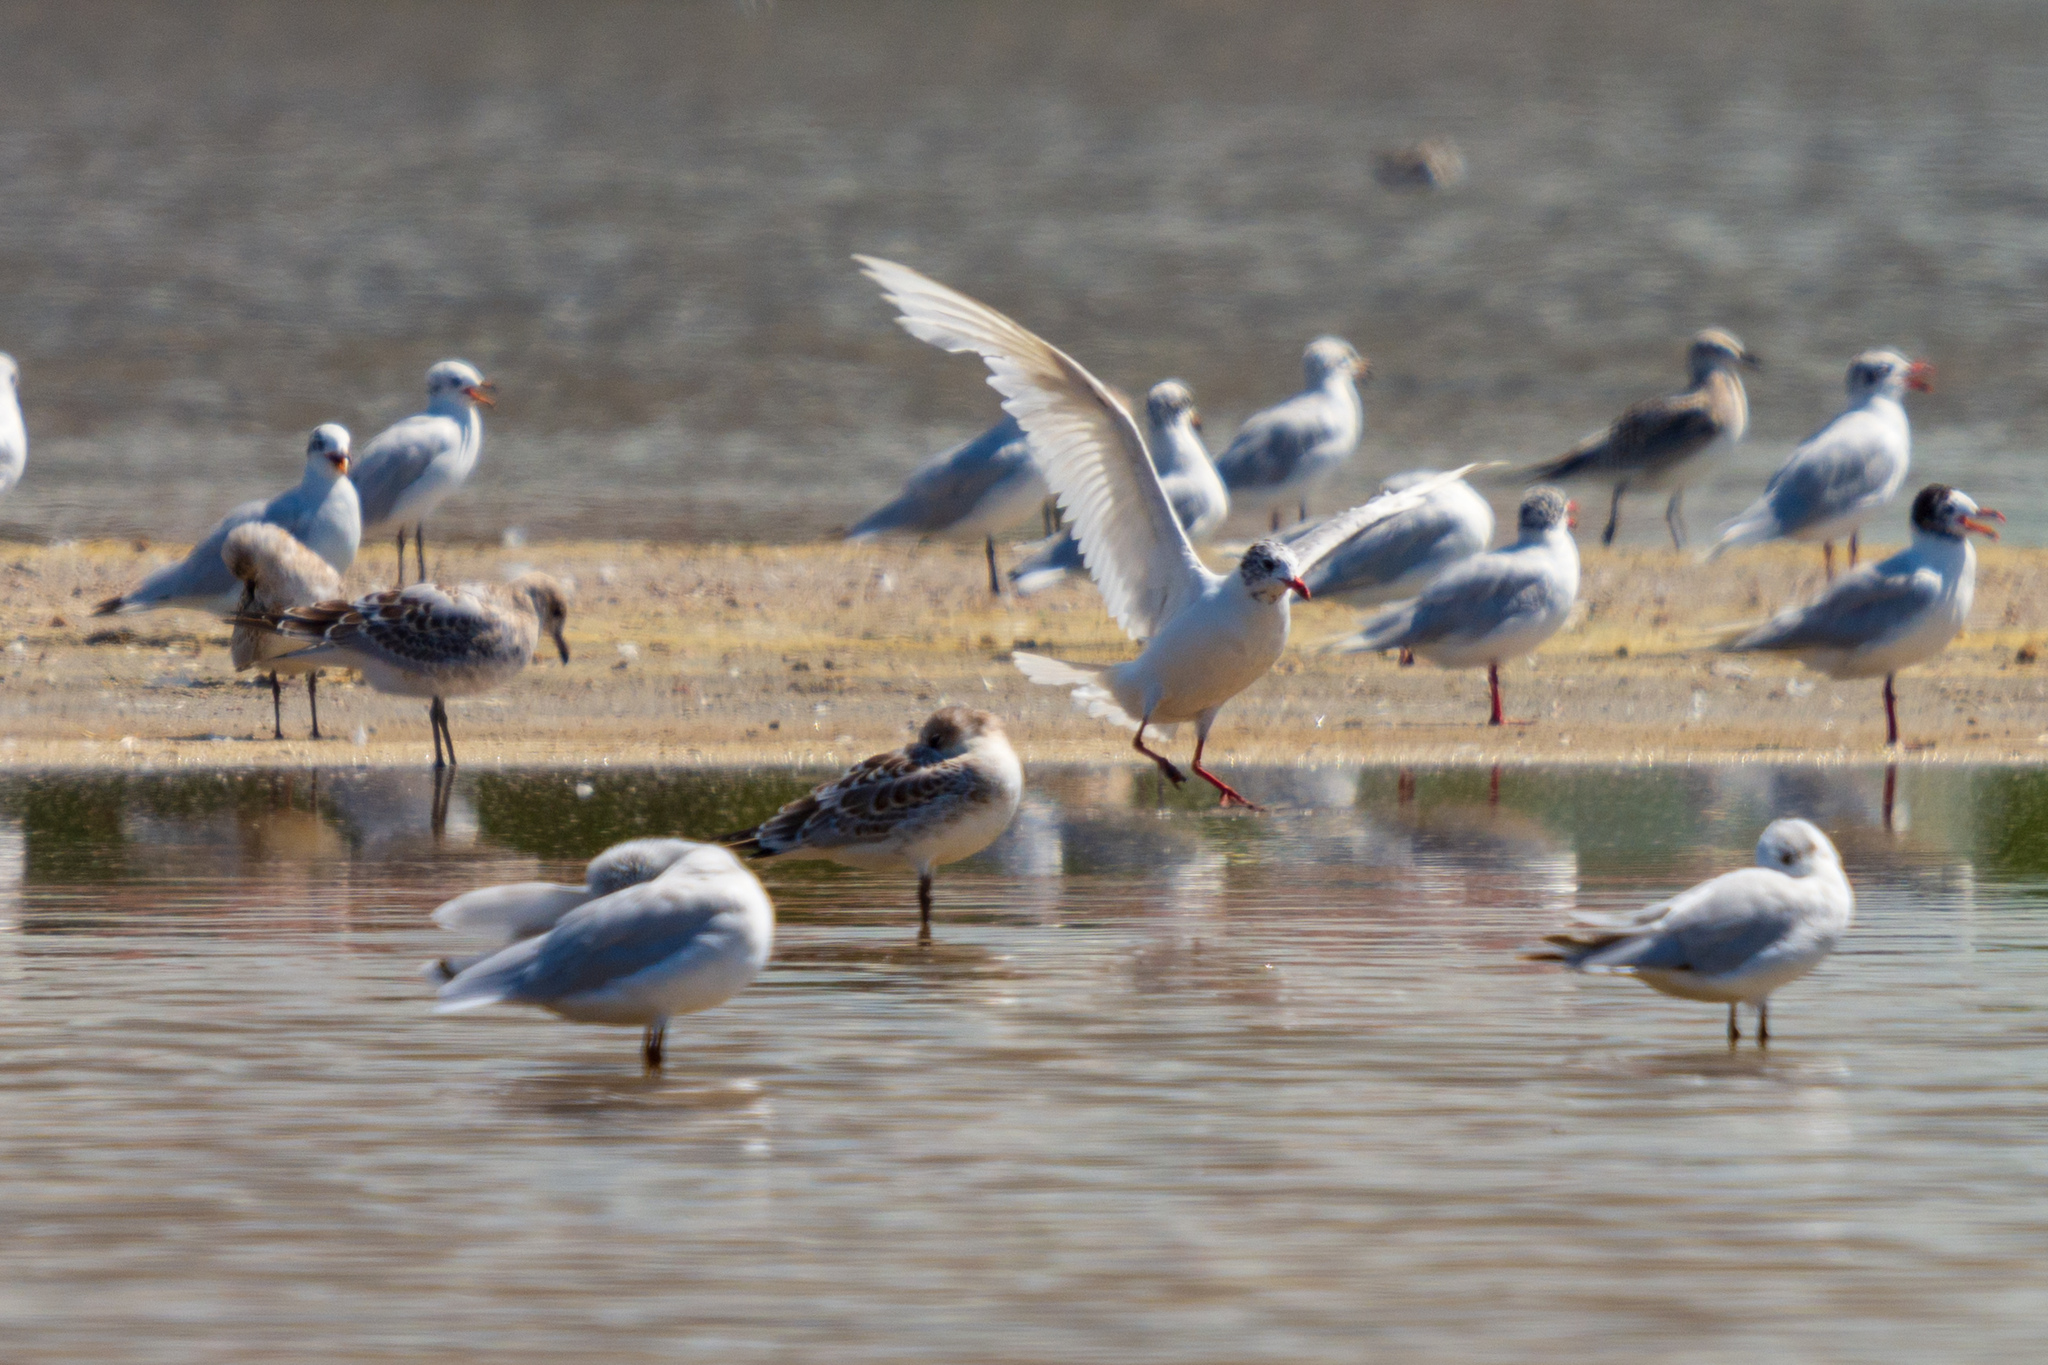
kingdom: Animalia
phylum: Chordata
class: Aves
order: Charadriiformes
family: Laridae
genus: Ichthyaetus
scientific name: Ichthyaetus melanocephalus
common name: Mediterranean gull
